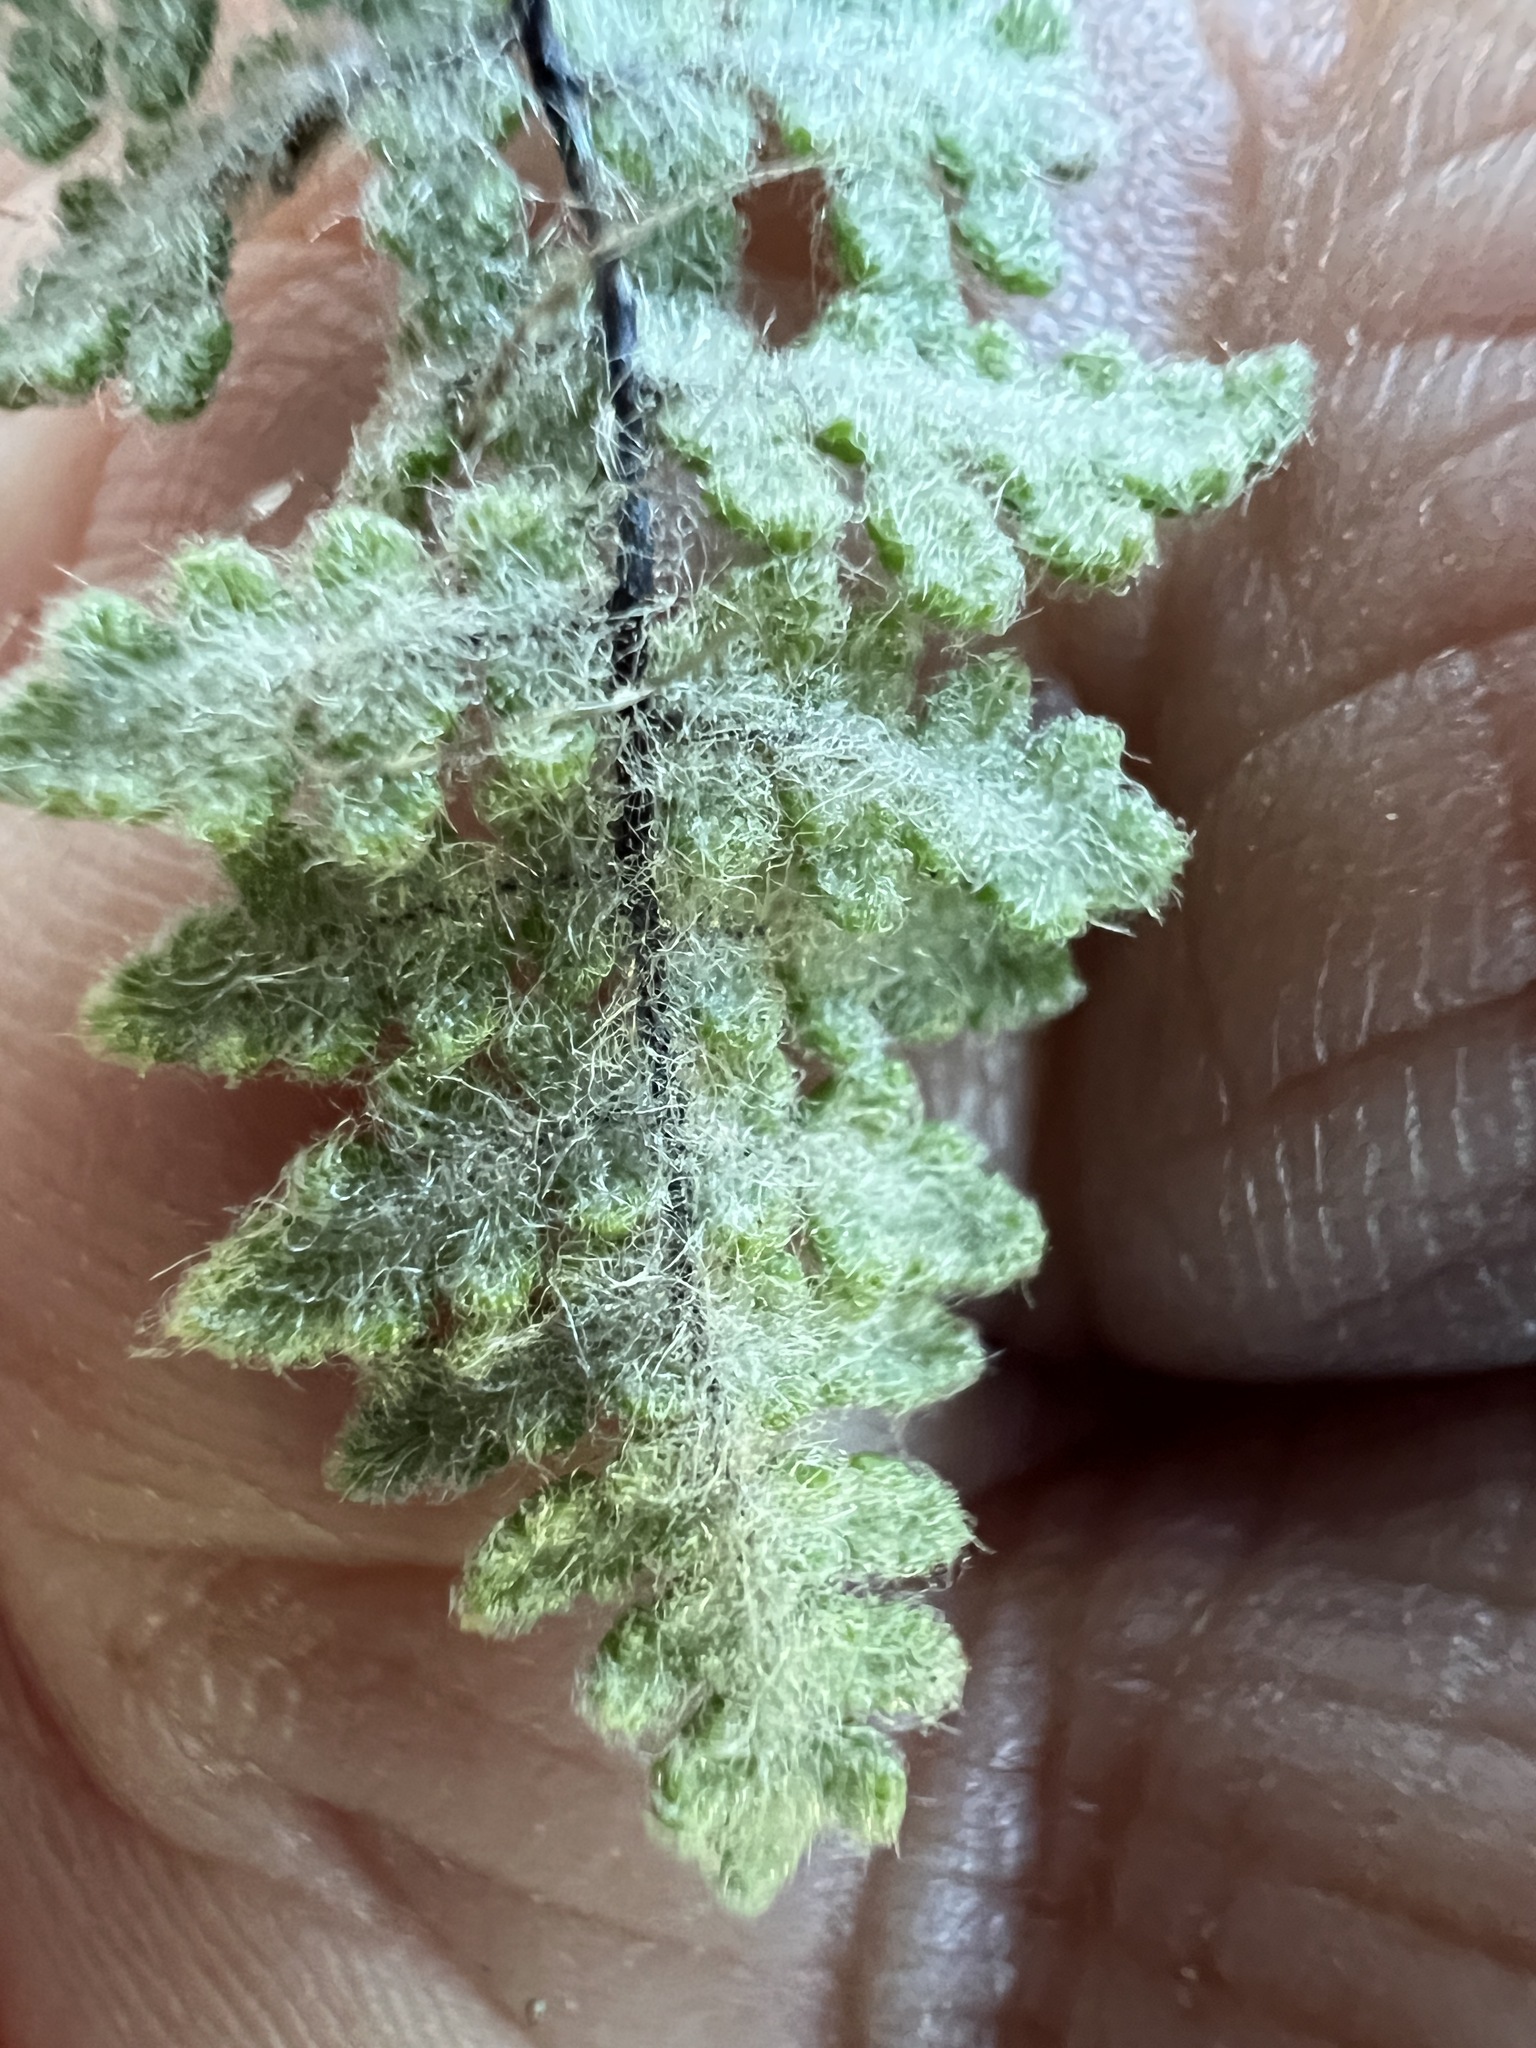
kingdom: Plantae
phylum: Tracheophyta
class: Polypodiopsida
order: Polypodiales
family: Pteridaceae
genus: Myriopteris
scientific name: Myriopteris gracilis
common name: Fee's lip fern
